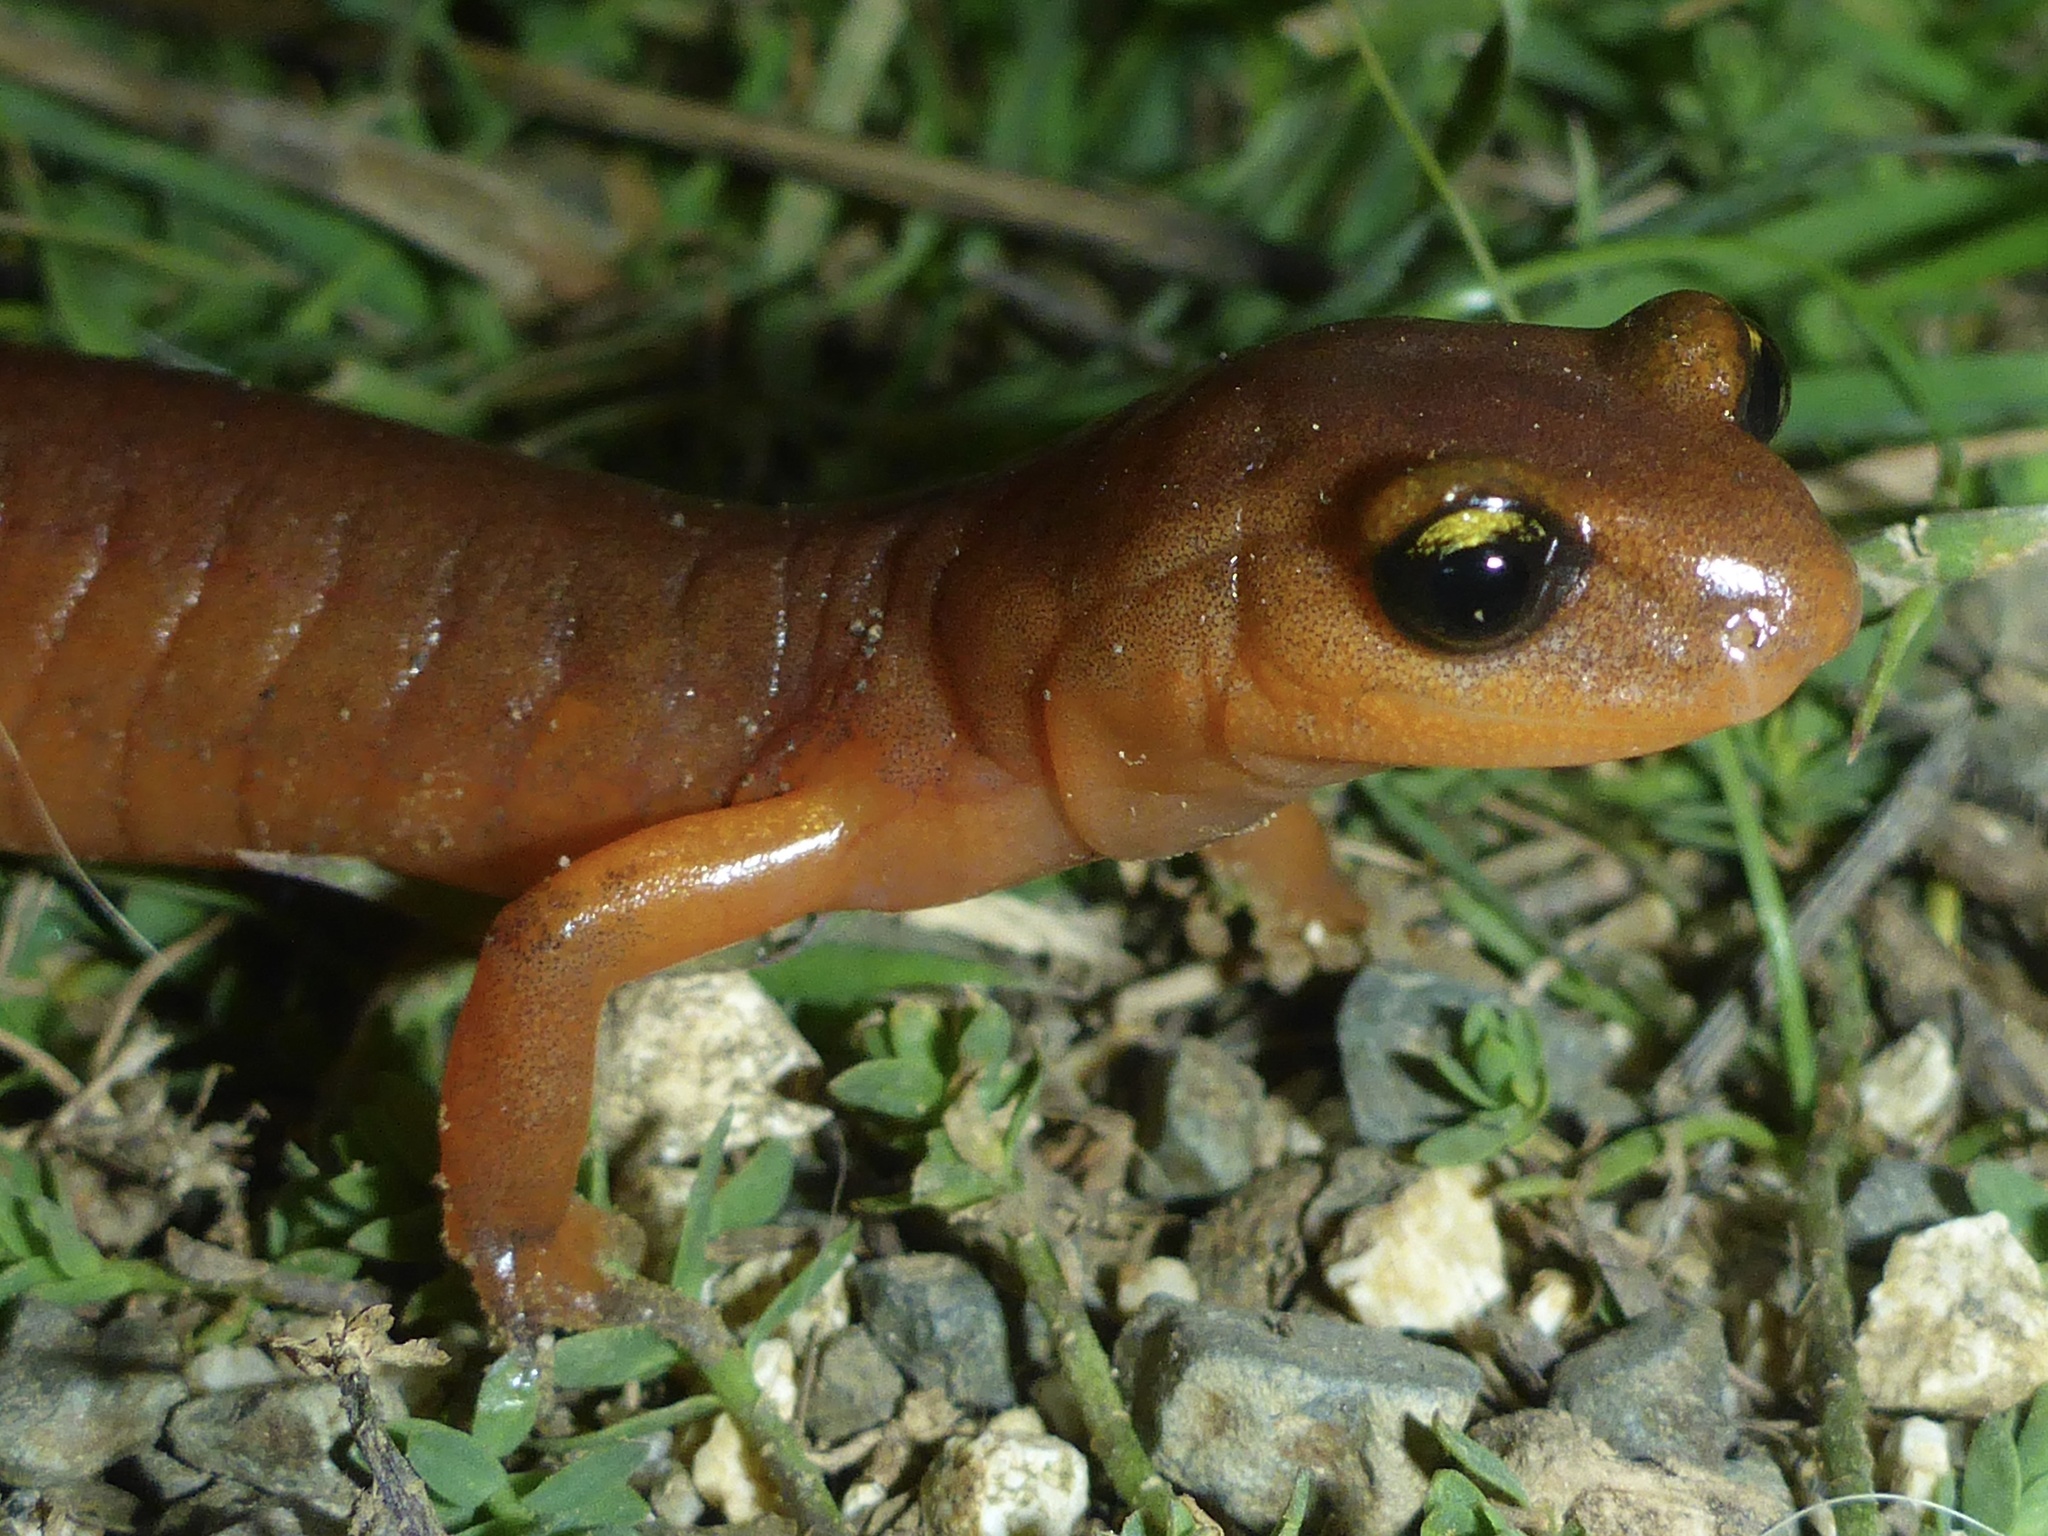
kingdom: Animalia
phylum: Chordata
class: Amphibia
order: Caudata
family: Plethodontidae
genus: Ensatina
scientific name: Ensatina eschscholtzii
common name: Ensatina
